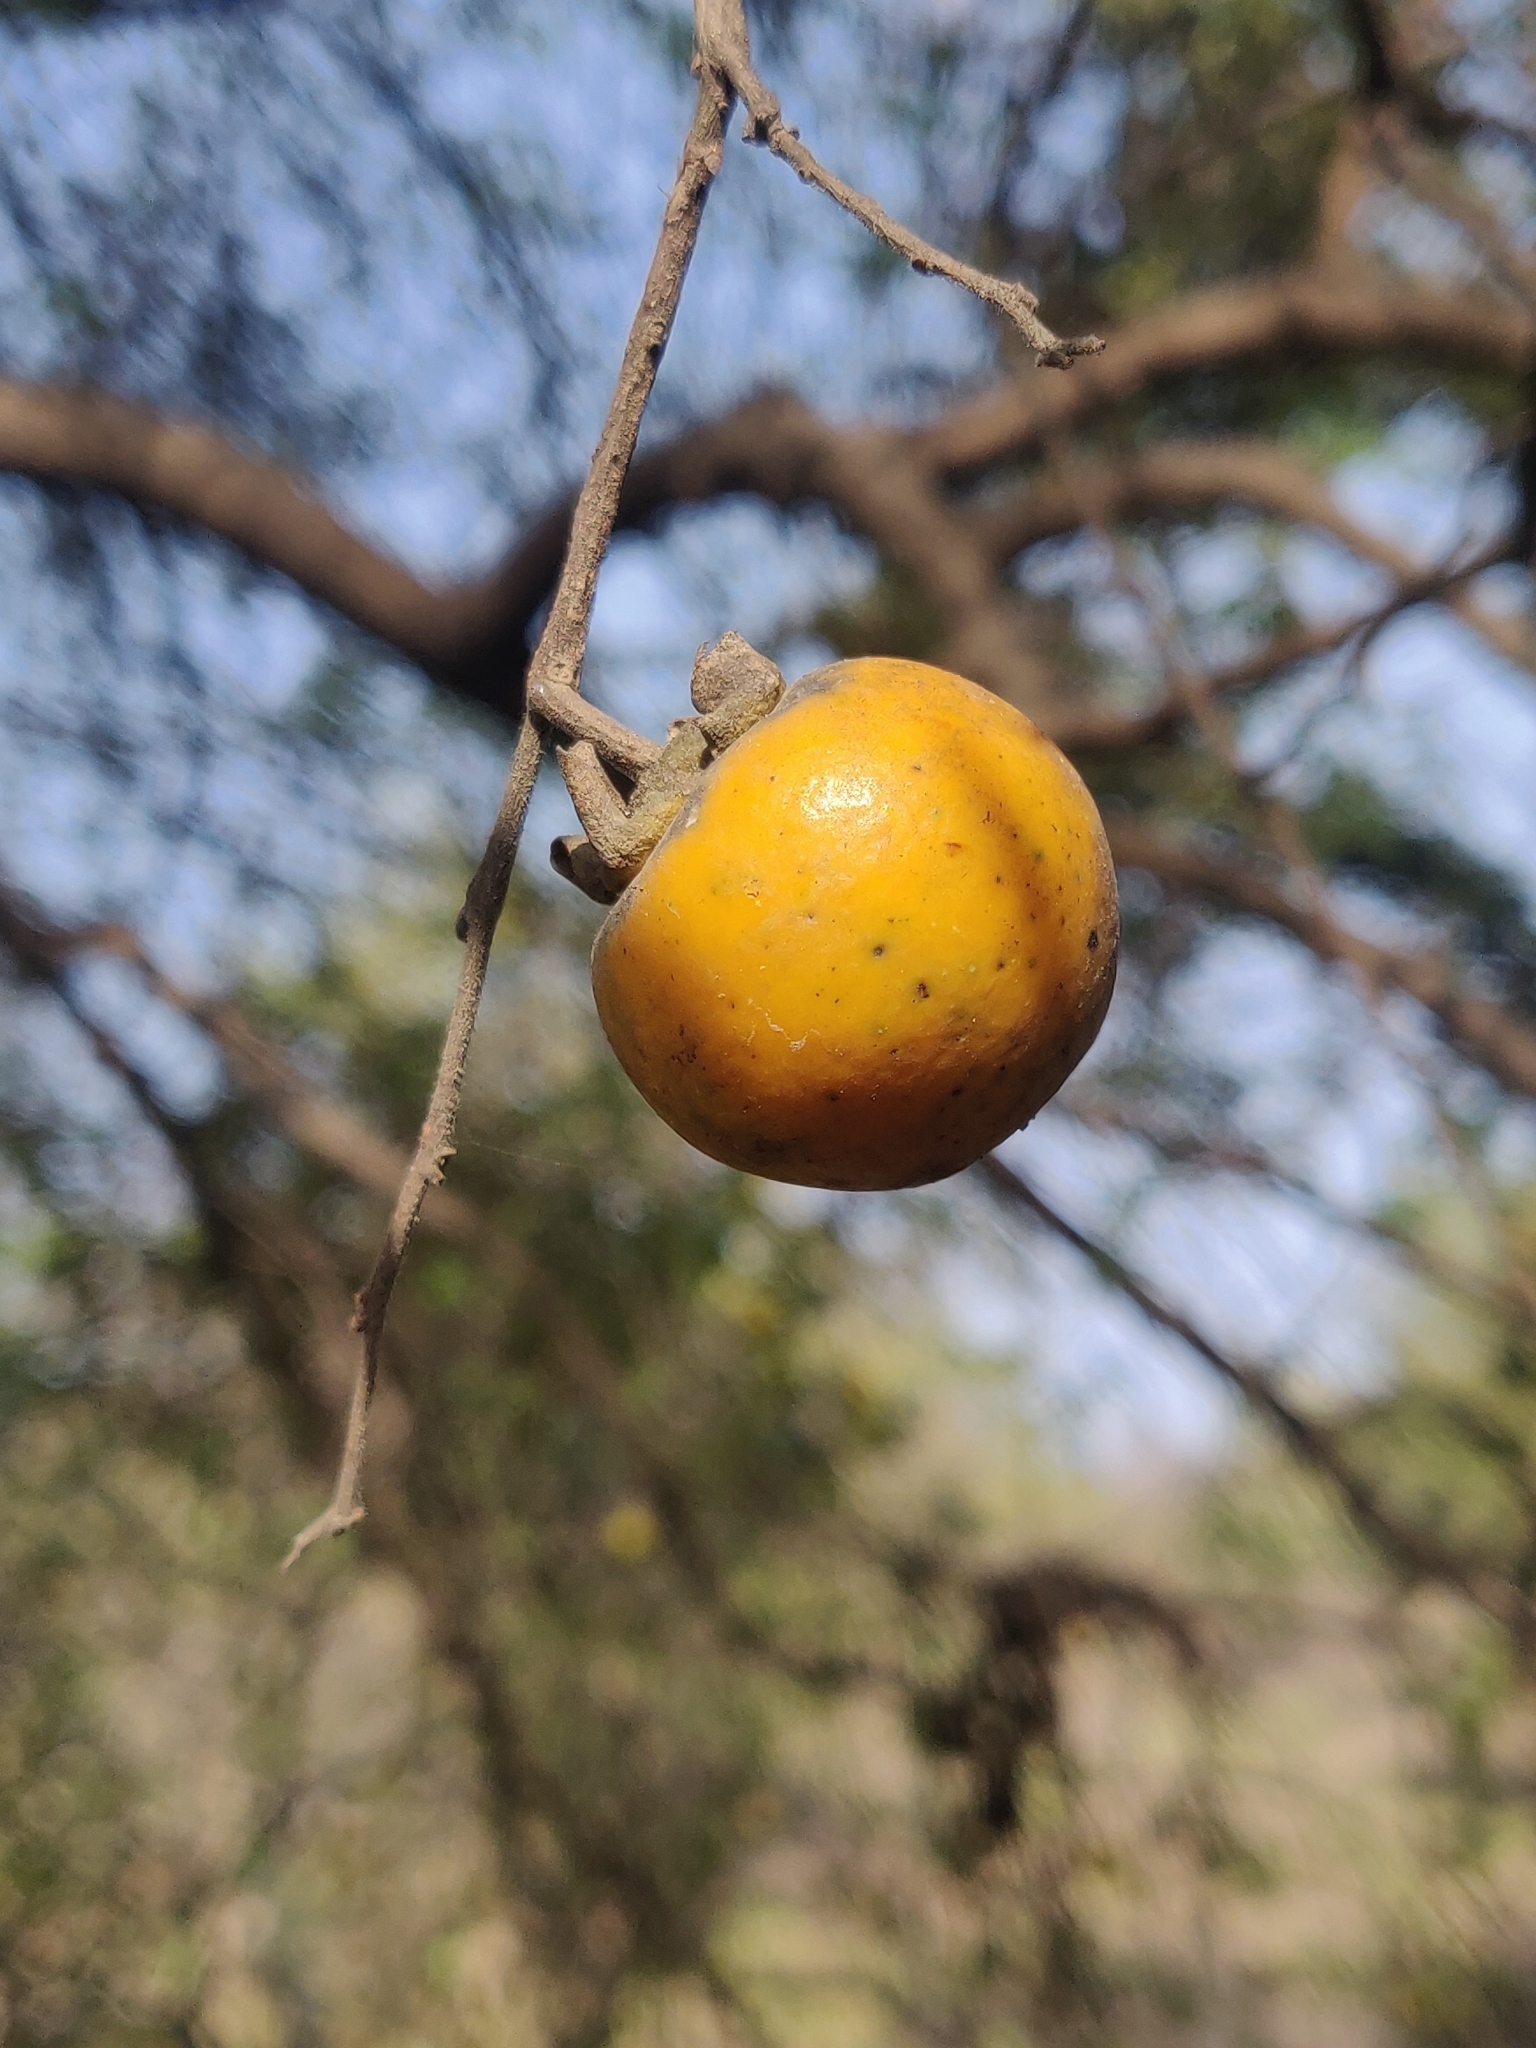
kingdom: Plantae
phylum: Tracheophyta
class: Magnoliopsida
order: Ericales
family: Ebenaceae
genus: Diospyros
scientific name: Diospyros montana
